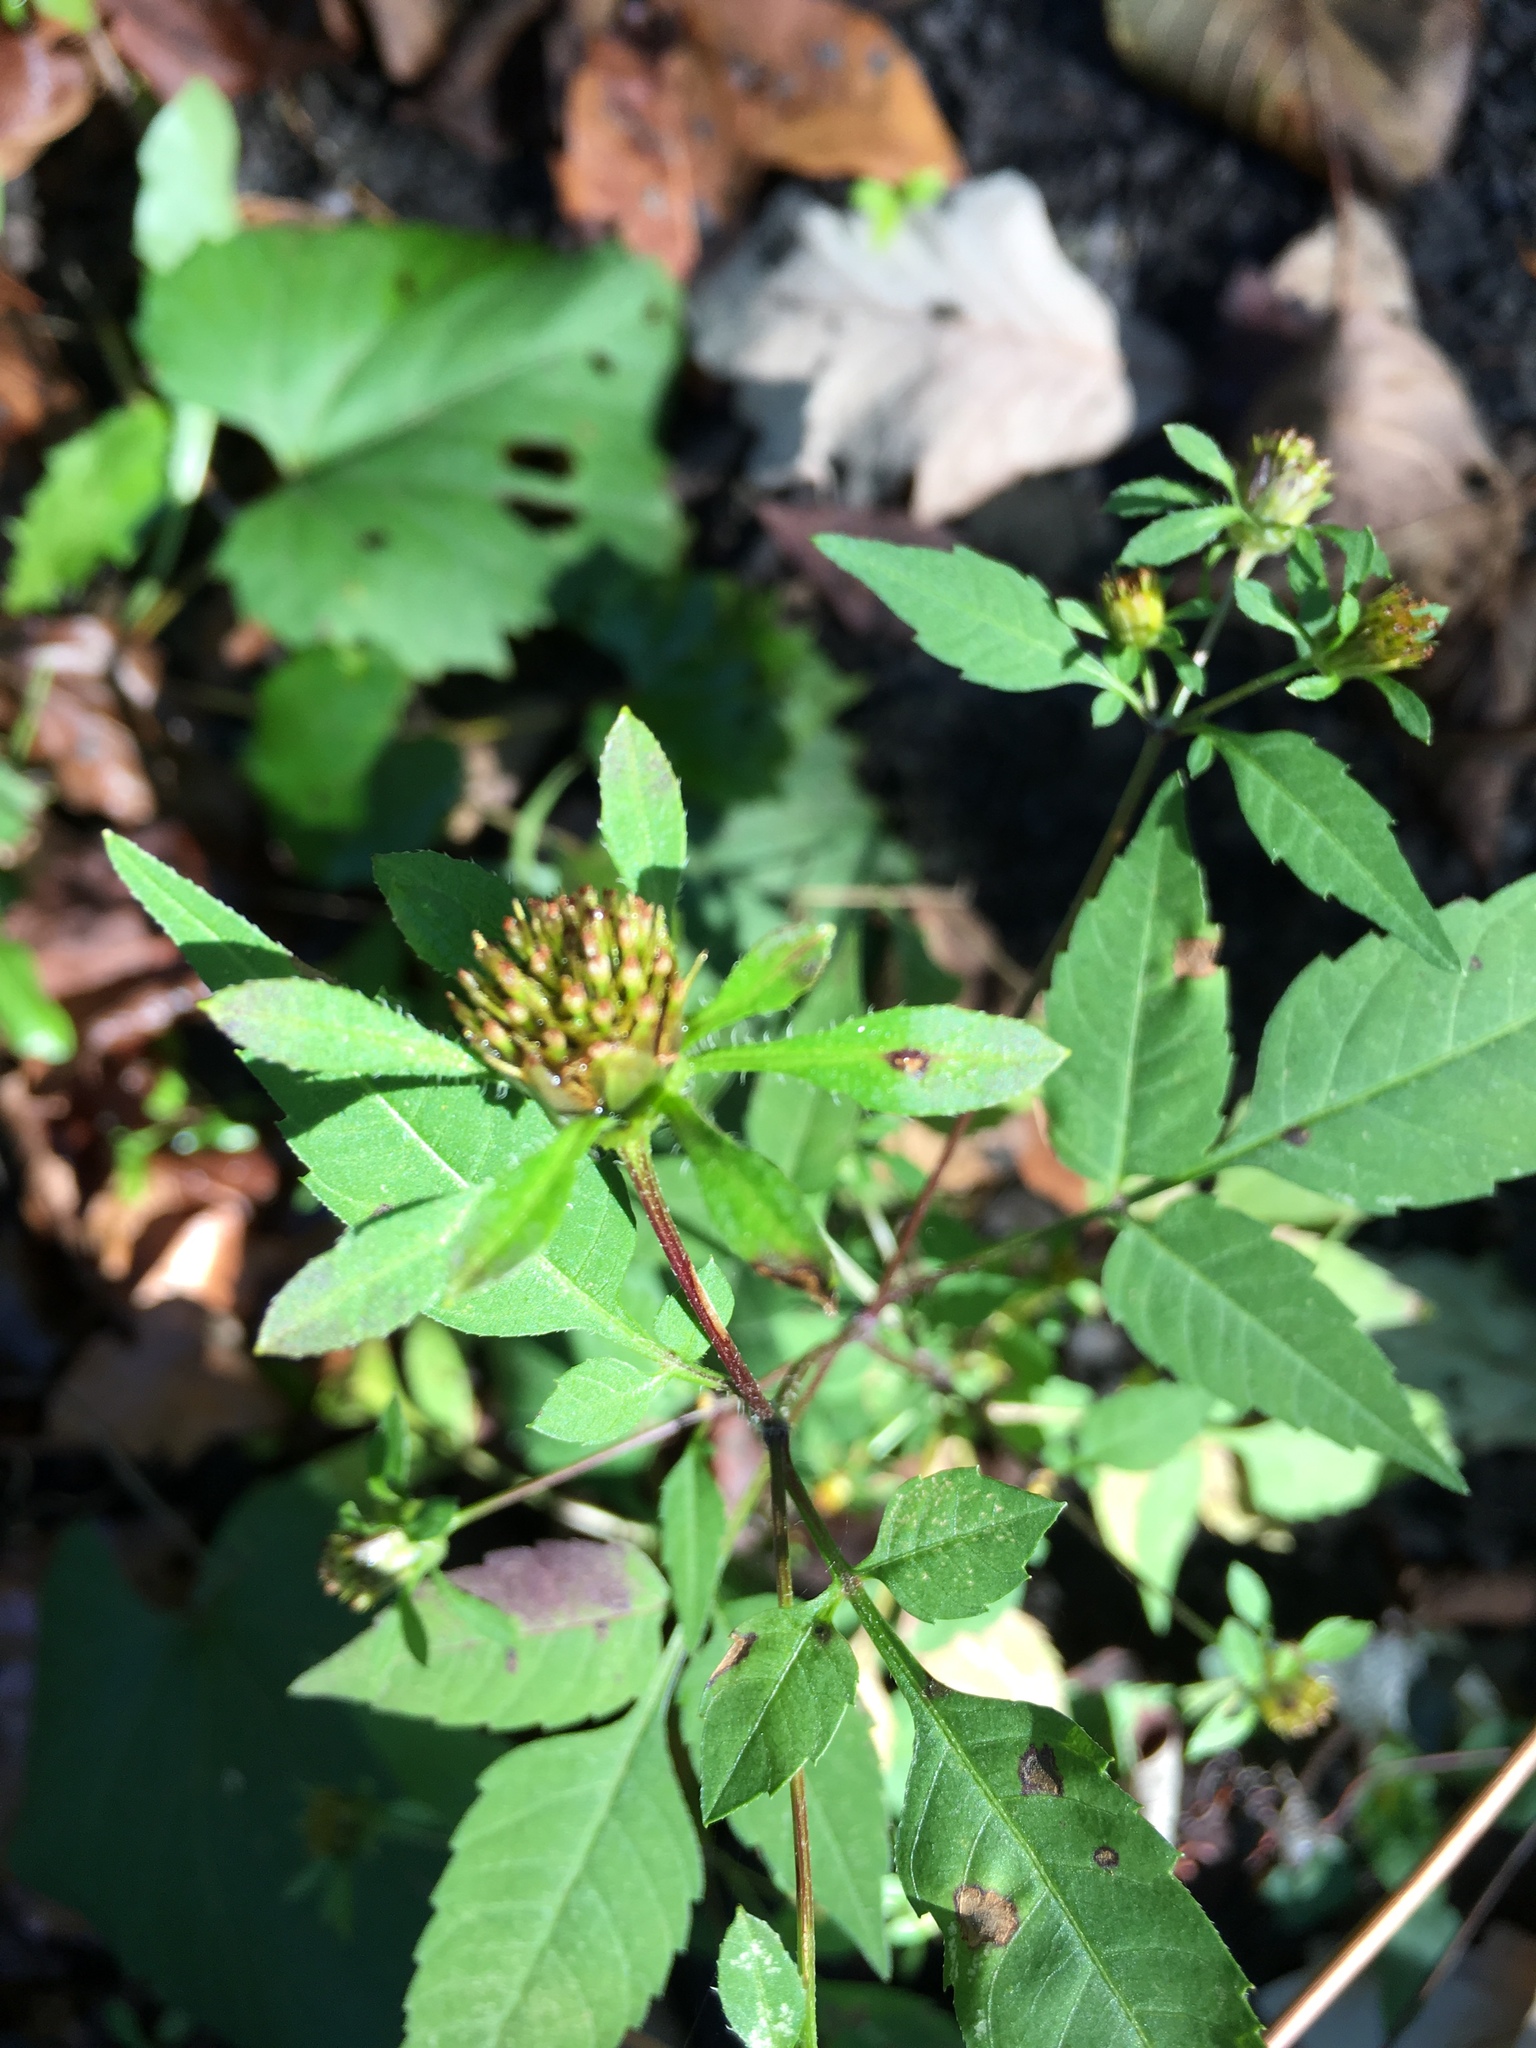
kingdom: Plantae
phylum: Tracheophyta
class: Magnoliopsida
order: Asterales
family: Asteraceae
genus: Bidens
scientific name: Bidens frondosa
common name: Beggarticks
